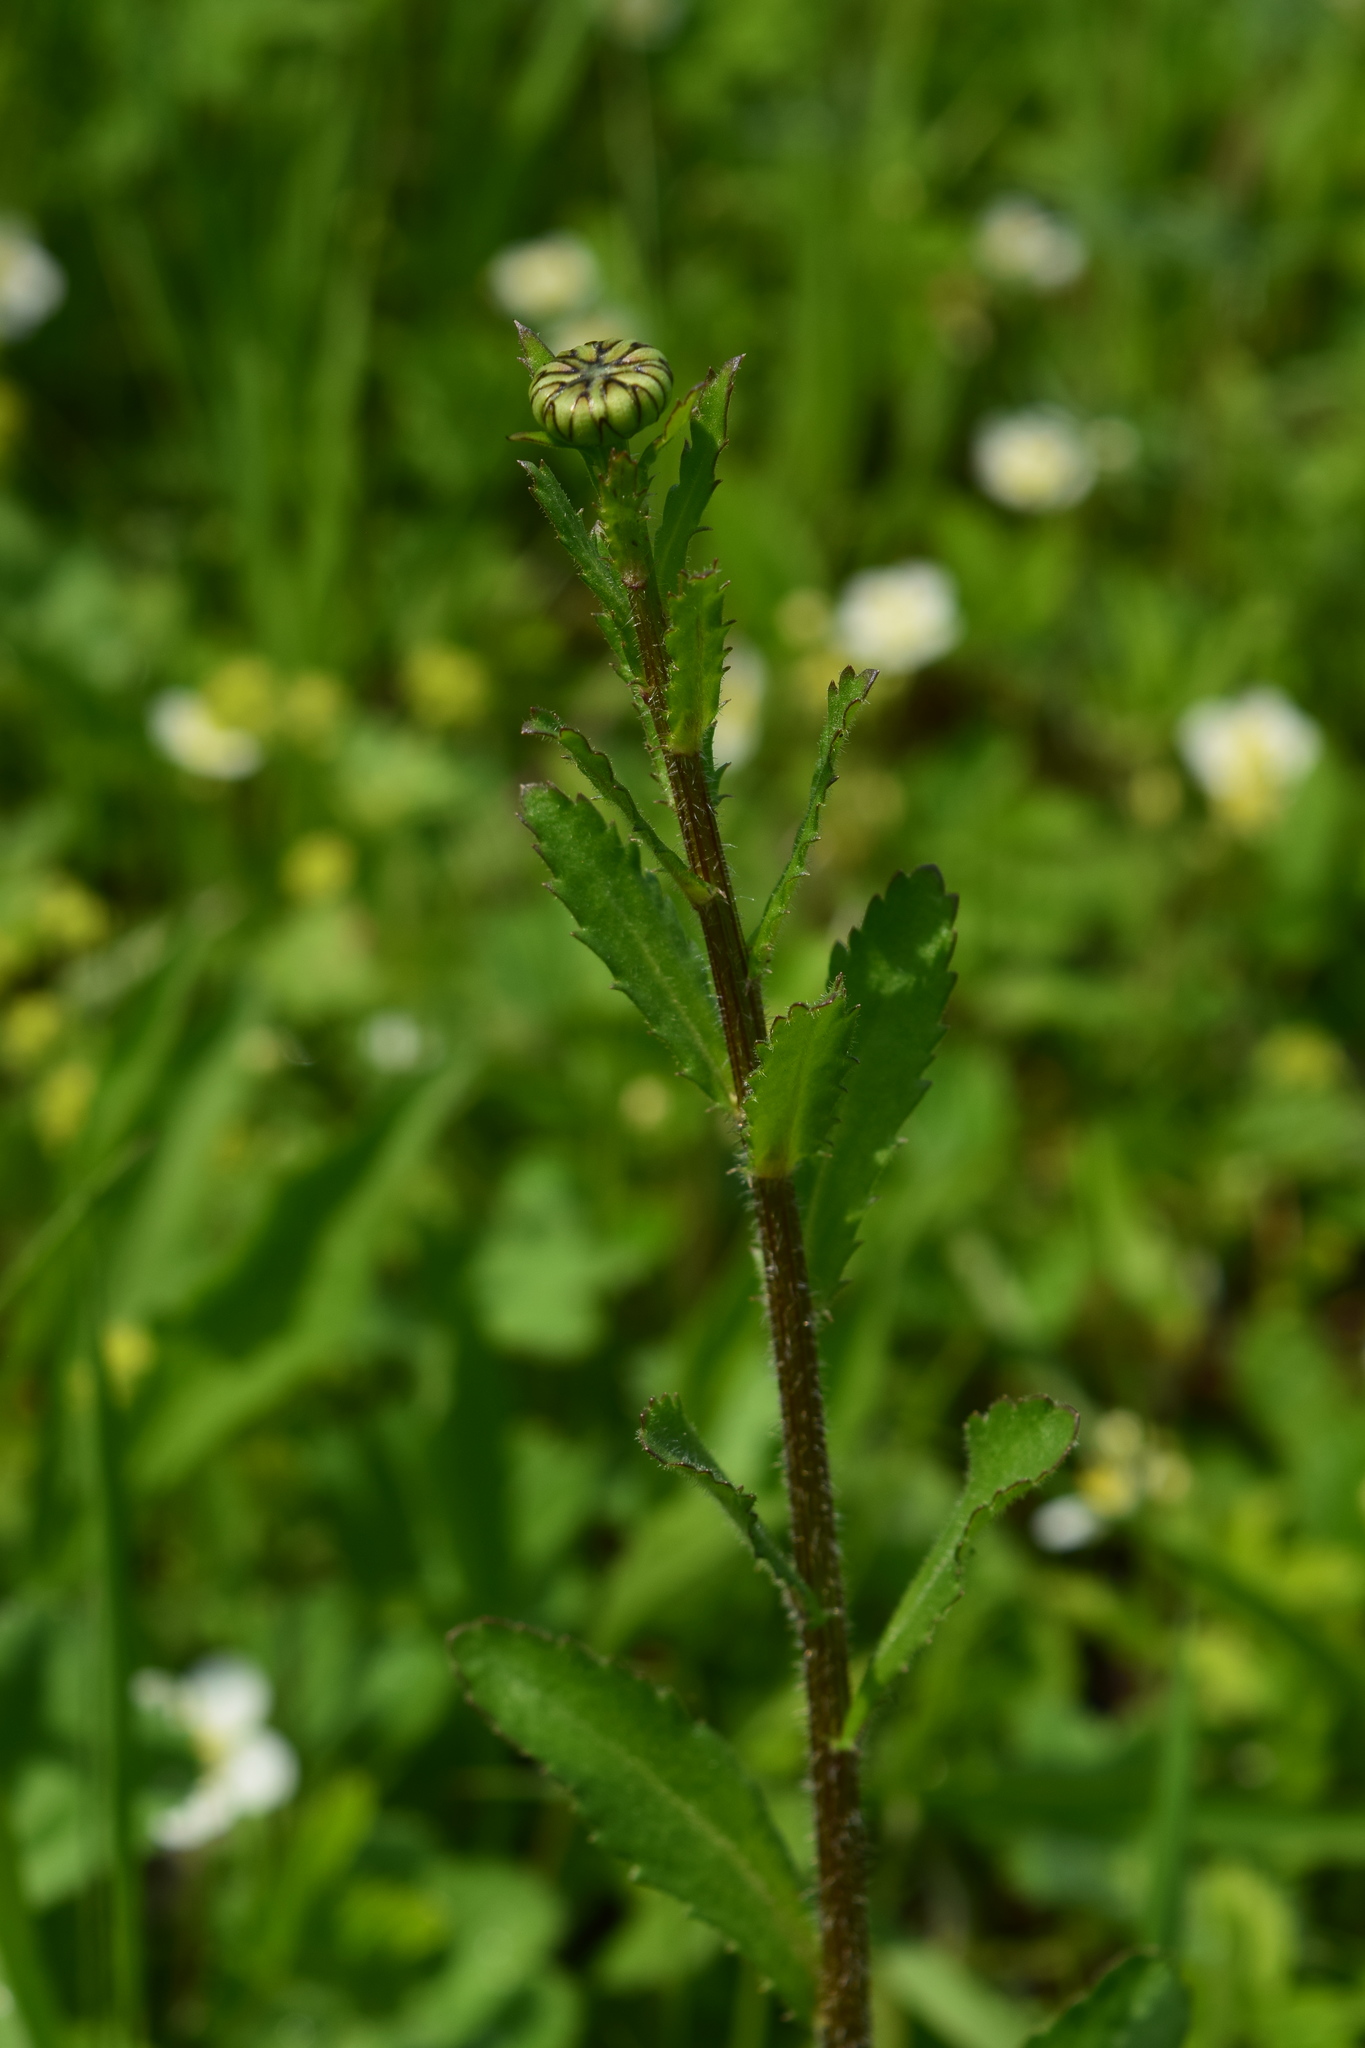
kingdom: Plantae
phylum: Tracheophyta
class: Magnoliopsida
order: Asterales
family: Asteraceae
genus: Leucanthemum
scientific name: Leucanthemum vulgare
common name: Oxeye daisy
